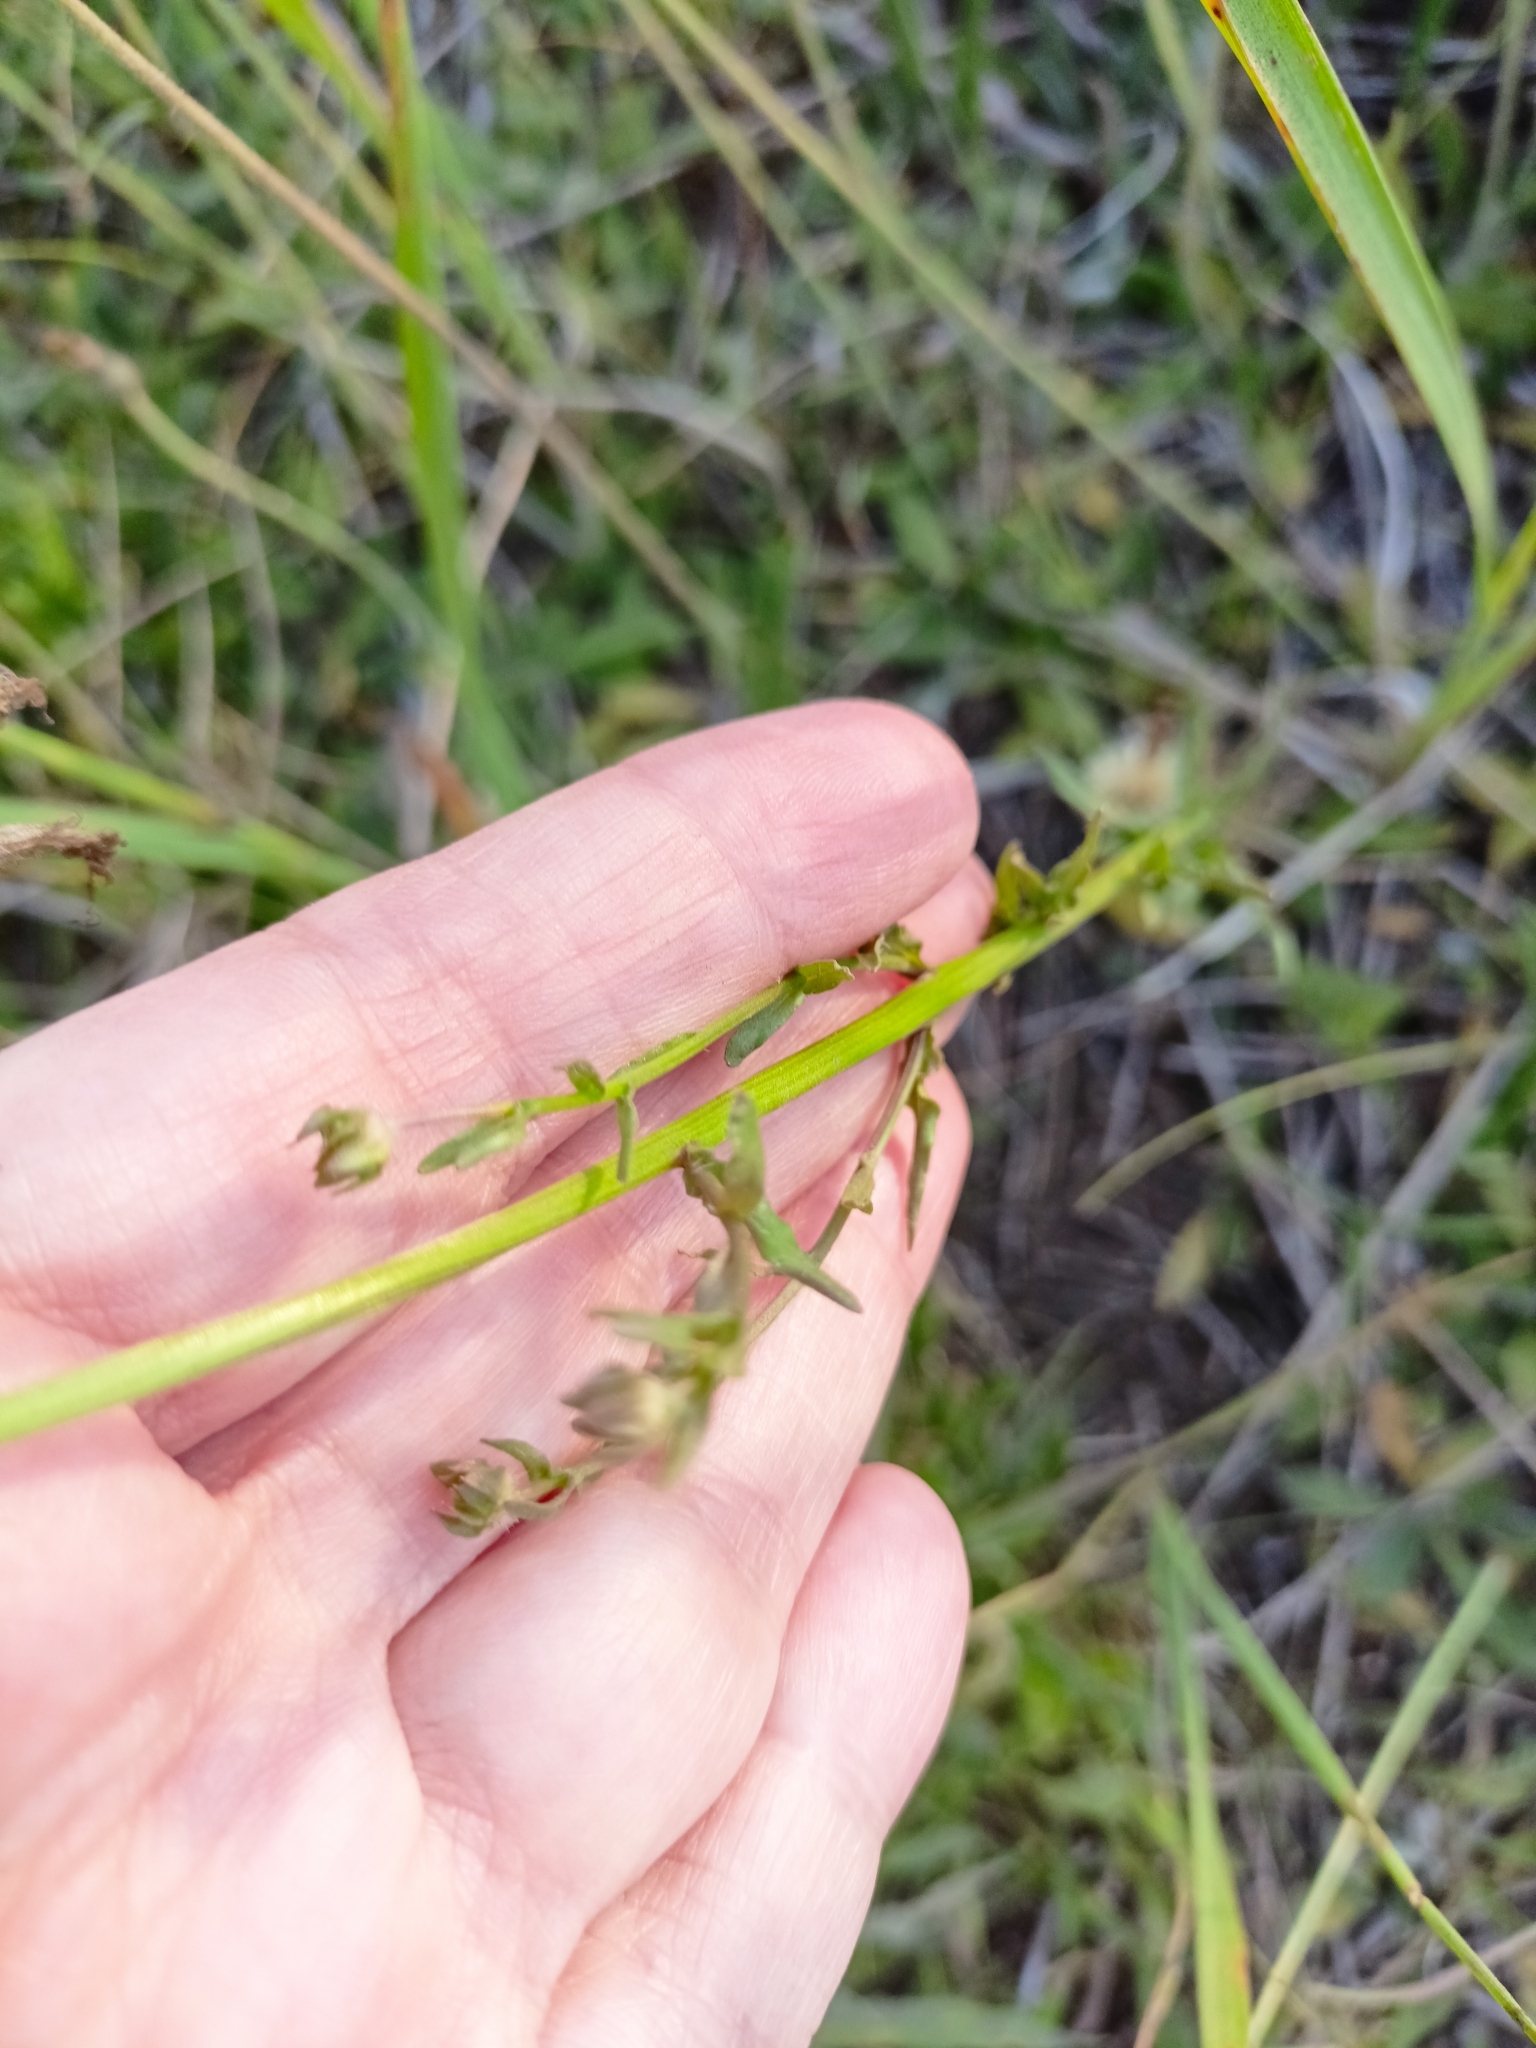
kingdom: Plantae
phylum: Tracheophyta
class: Magnoliopsida
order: Asterales
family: Campanulaceae
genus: Jasione
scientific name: Jasione montana
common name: Sheep's-bit
